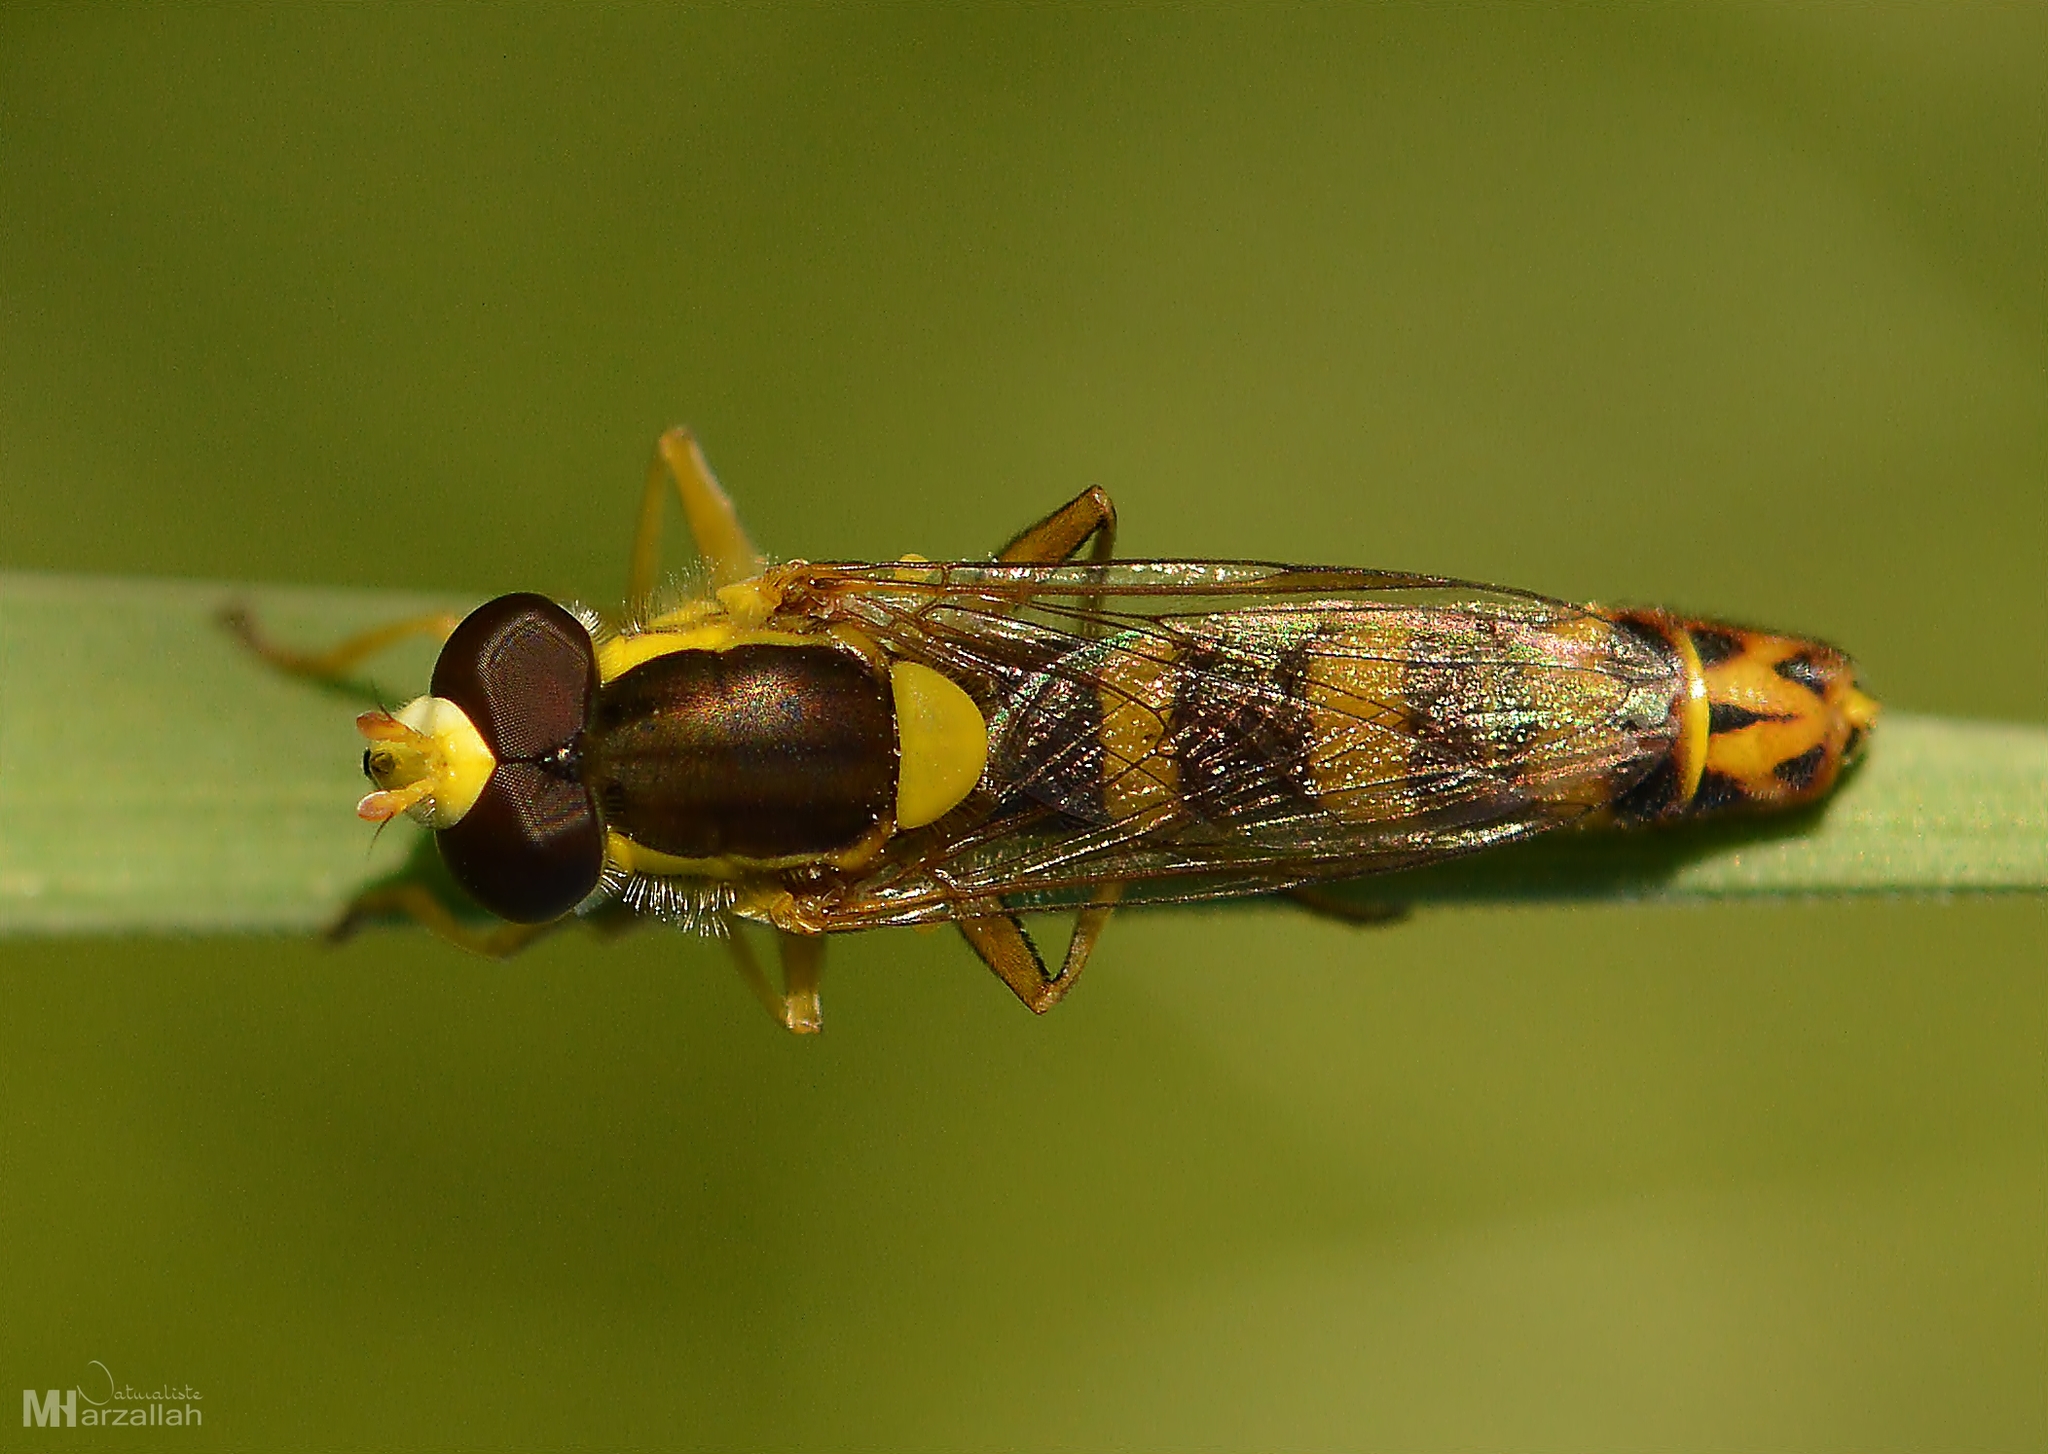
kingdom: Animalia
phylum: Arthropoda
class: Insecta
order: Diptera
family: Syrphidae
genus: Sphaerophoria
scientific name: Sphaerophoria scripta
